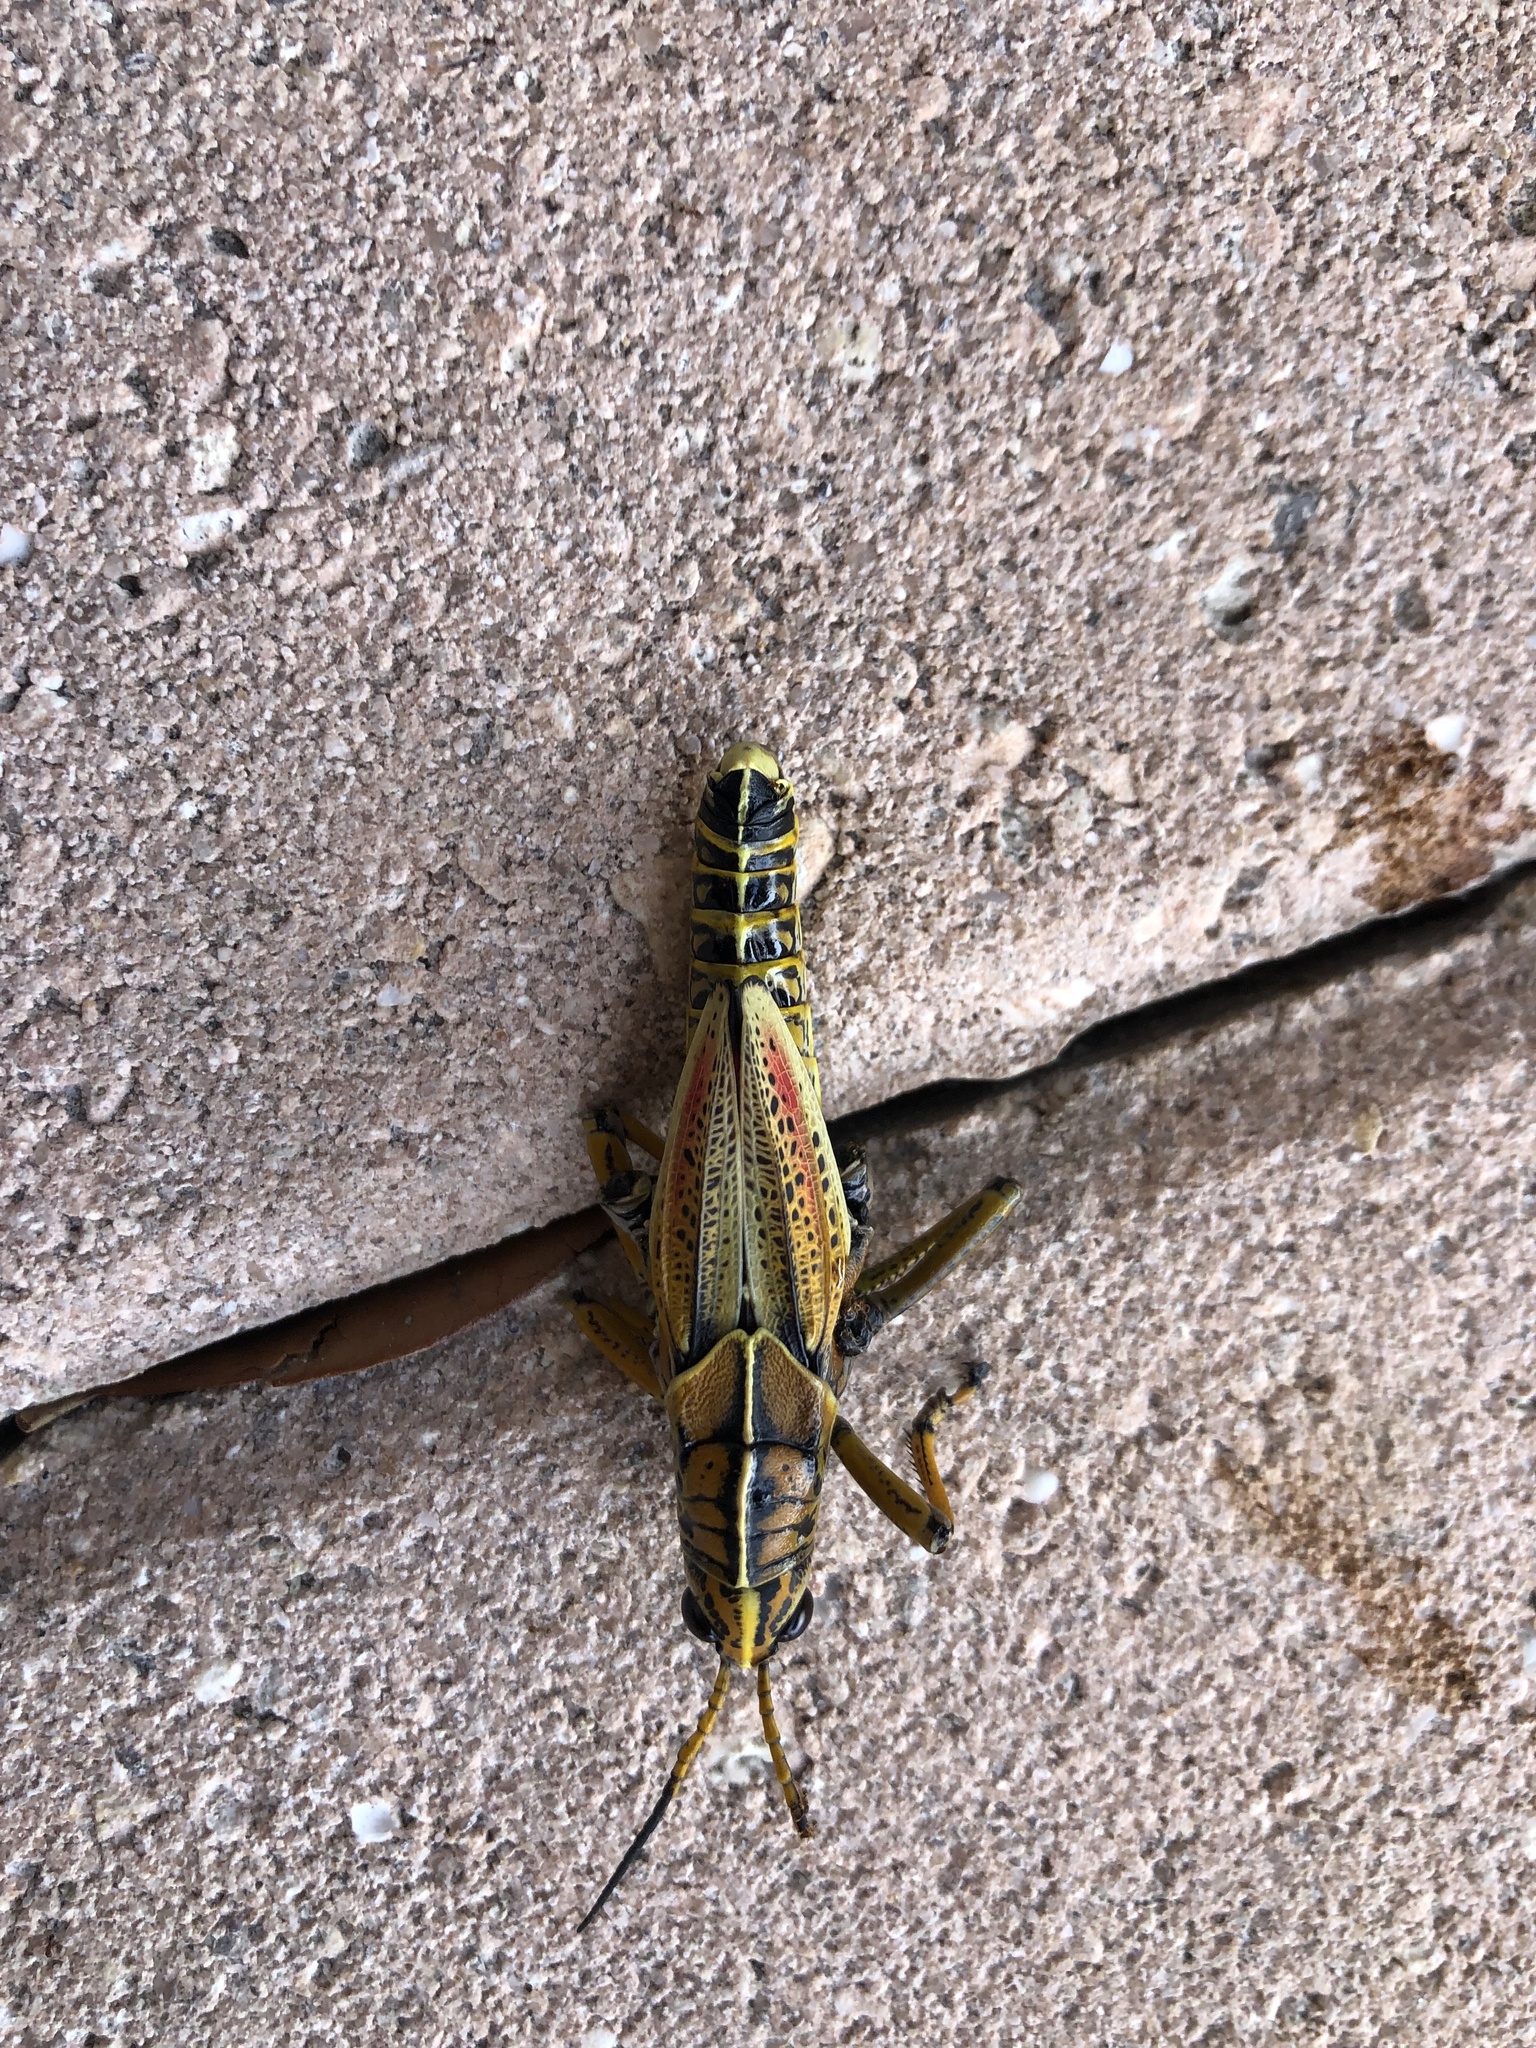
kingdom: Animalia
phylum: Arthropoda
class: Insecta
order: Orthoptera
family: Romaleidae
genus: Romalea
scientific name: Romalea microptera
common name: Eastern lubber grasshopper
